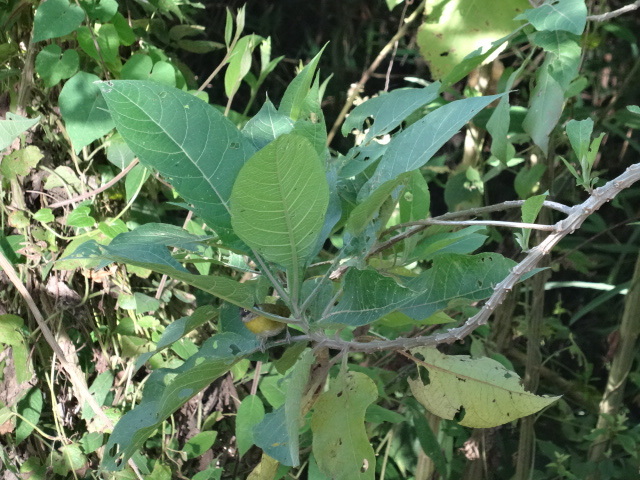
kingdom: Animalia
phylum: Chordata
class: Aves
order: Passeriformes
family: Passerellidae
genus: Chlorospingus
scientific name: Chlorospingus flavopectus
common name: Common chlorospingus
